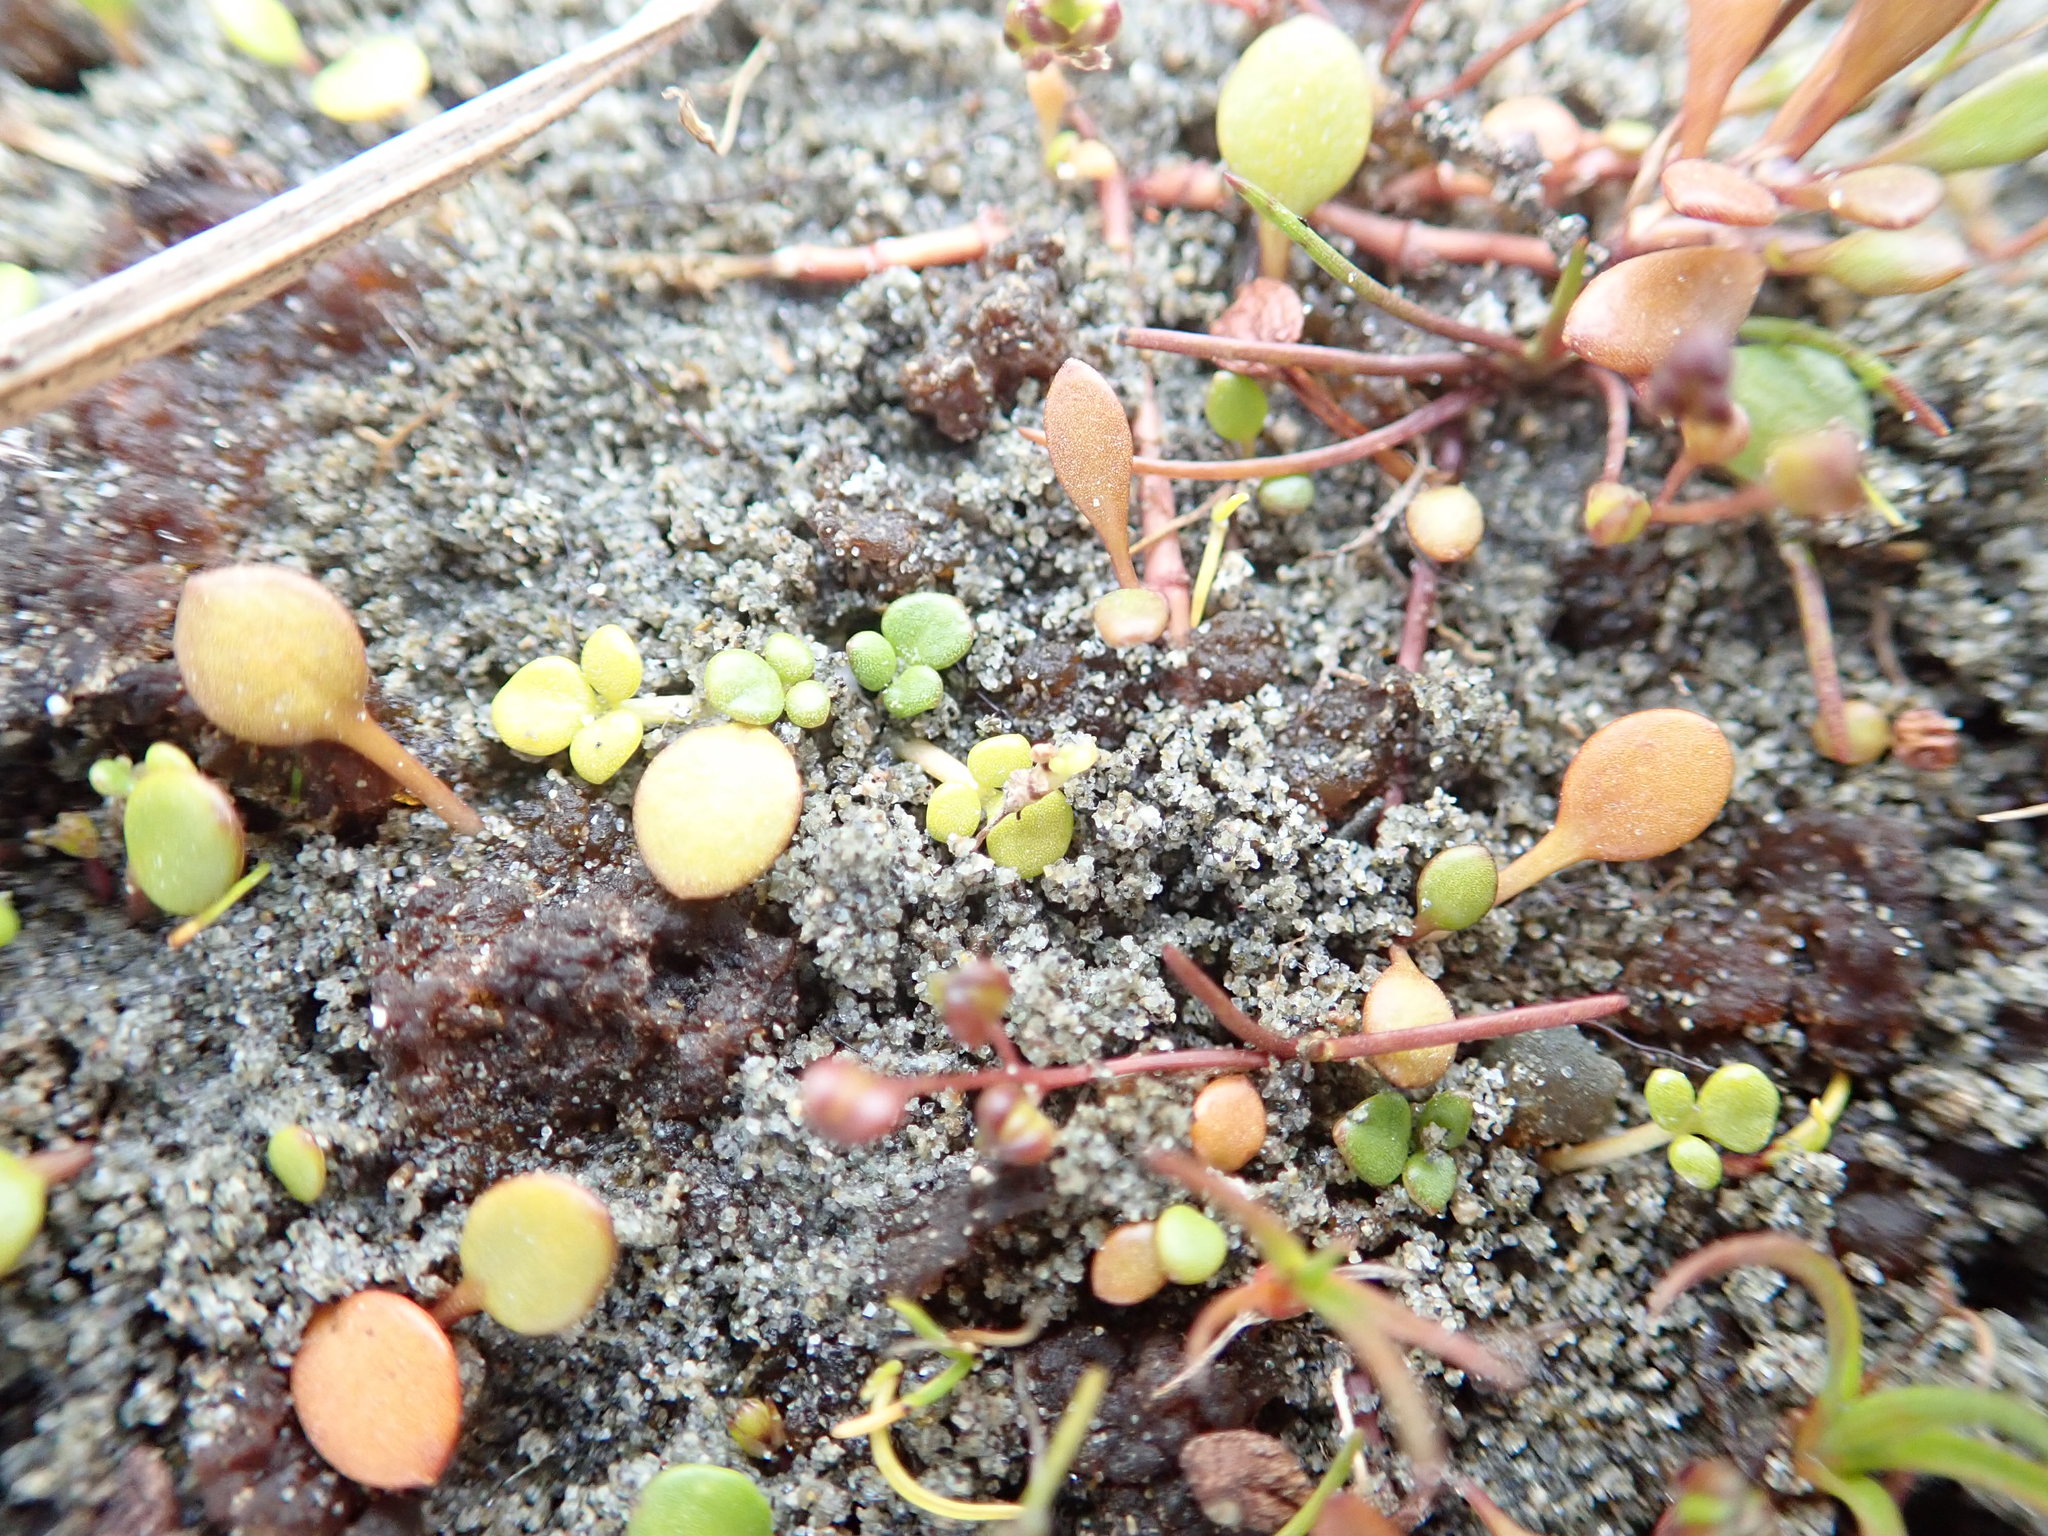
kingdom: Plantae
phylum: Tracheophyta
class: Magnoliopsida
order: Ranunculales
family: Ranunculaceae
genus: Ranunculus
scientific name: Ranunculus acaulis
